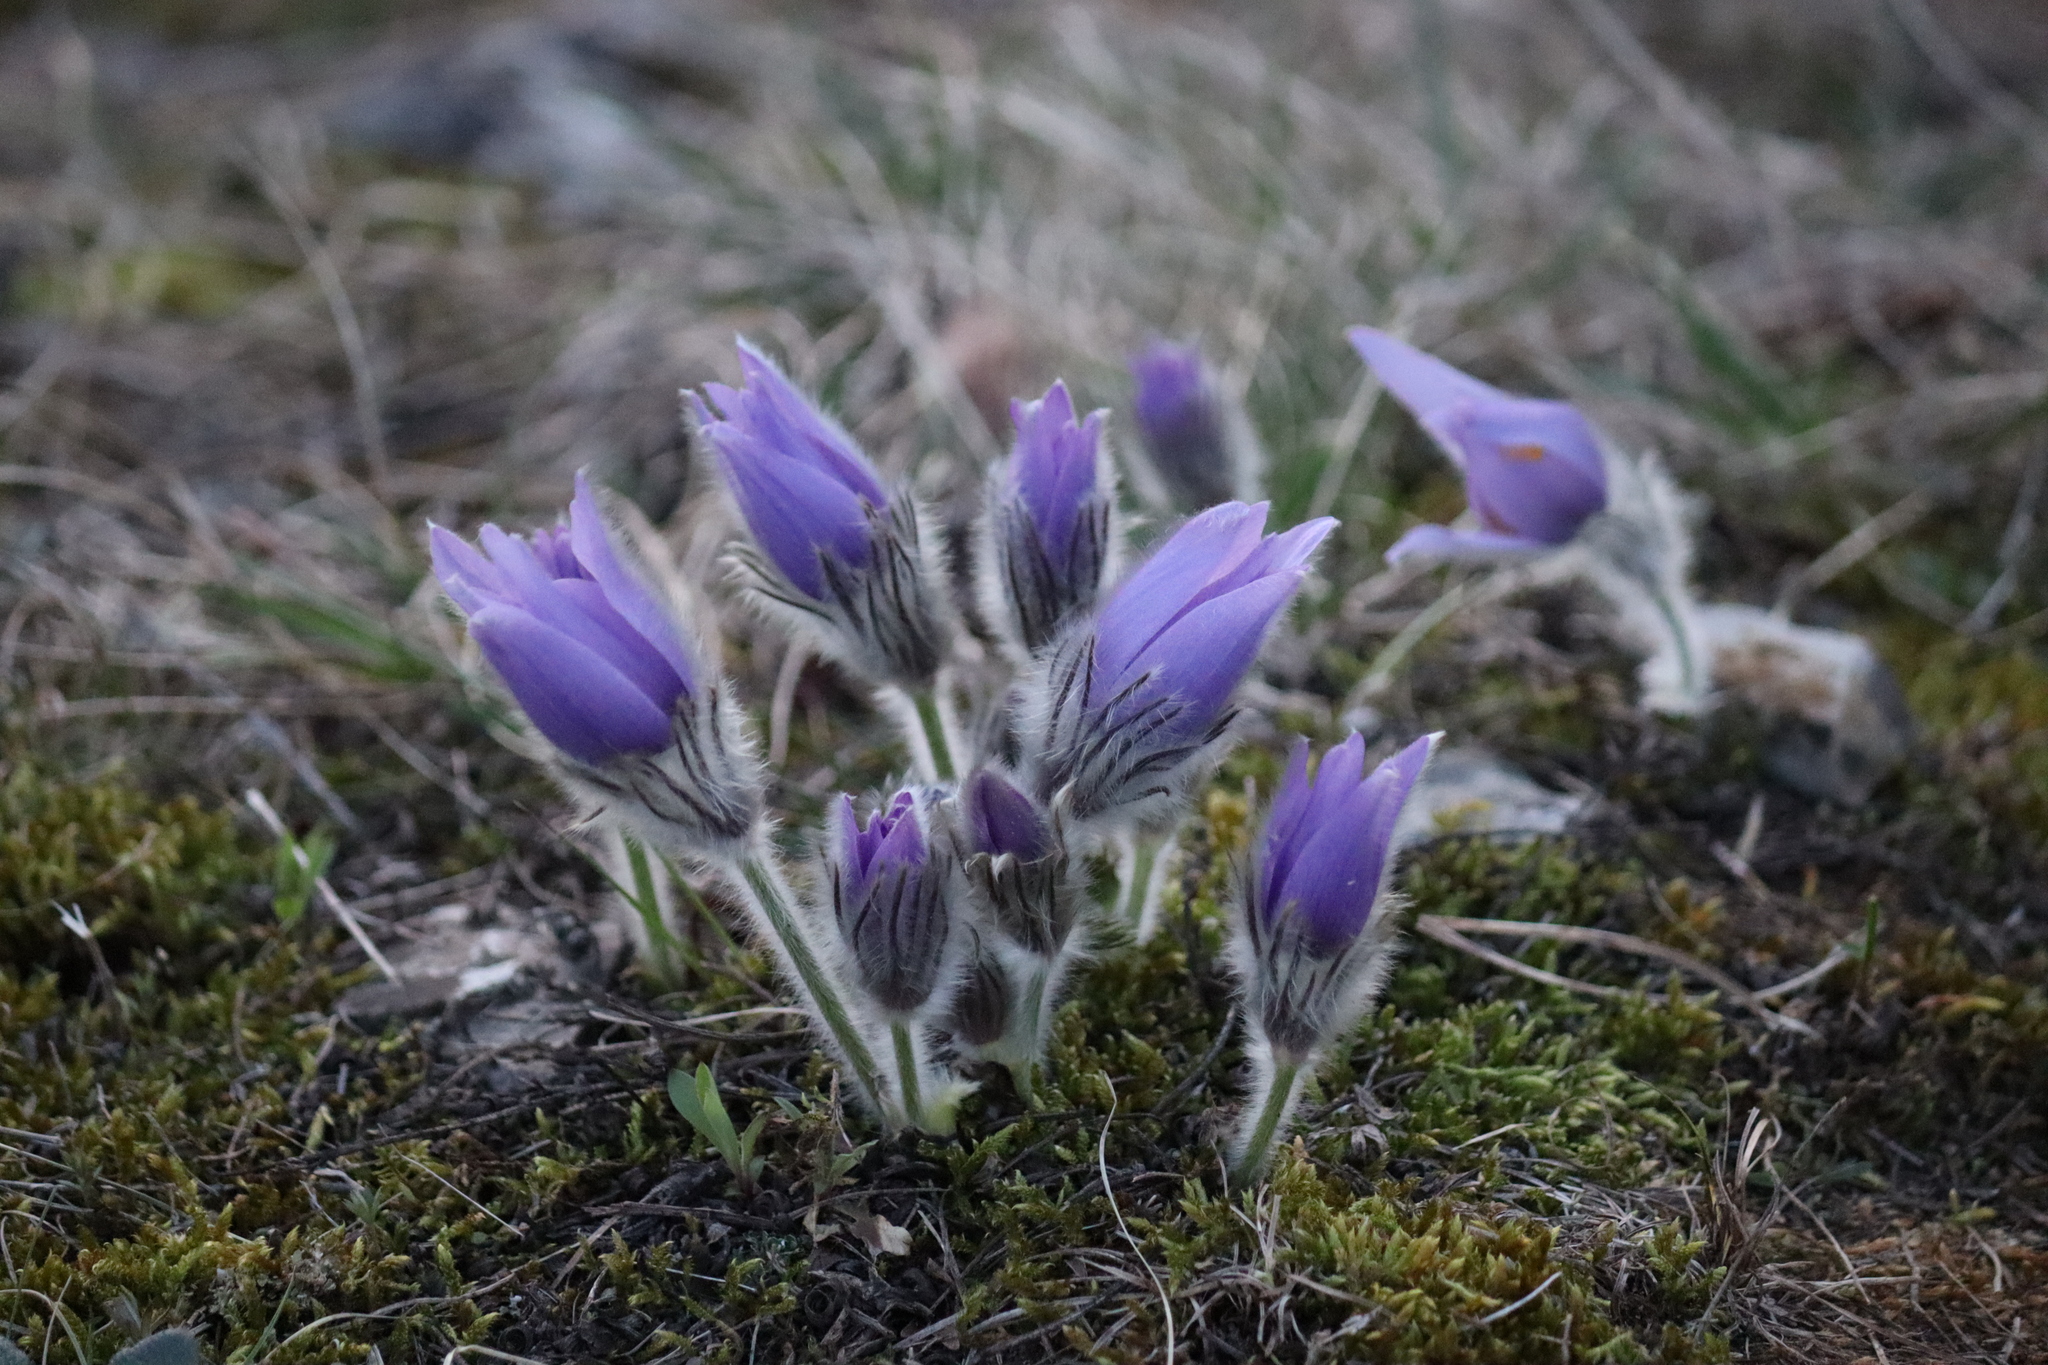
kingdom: Plantae
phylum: Tracheophyta
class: Magnoliopsida
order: Ranunculales
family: Ranunculaceae
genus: Pulsatilla
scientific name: Pulsatilla grandis
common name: Greater pasque flower
